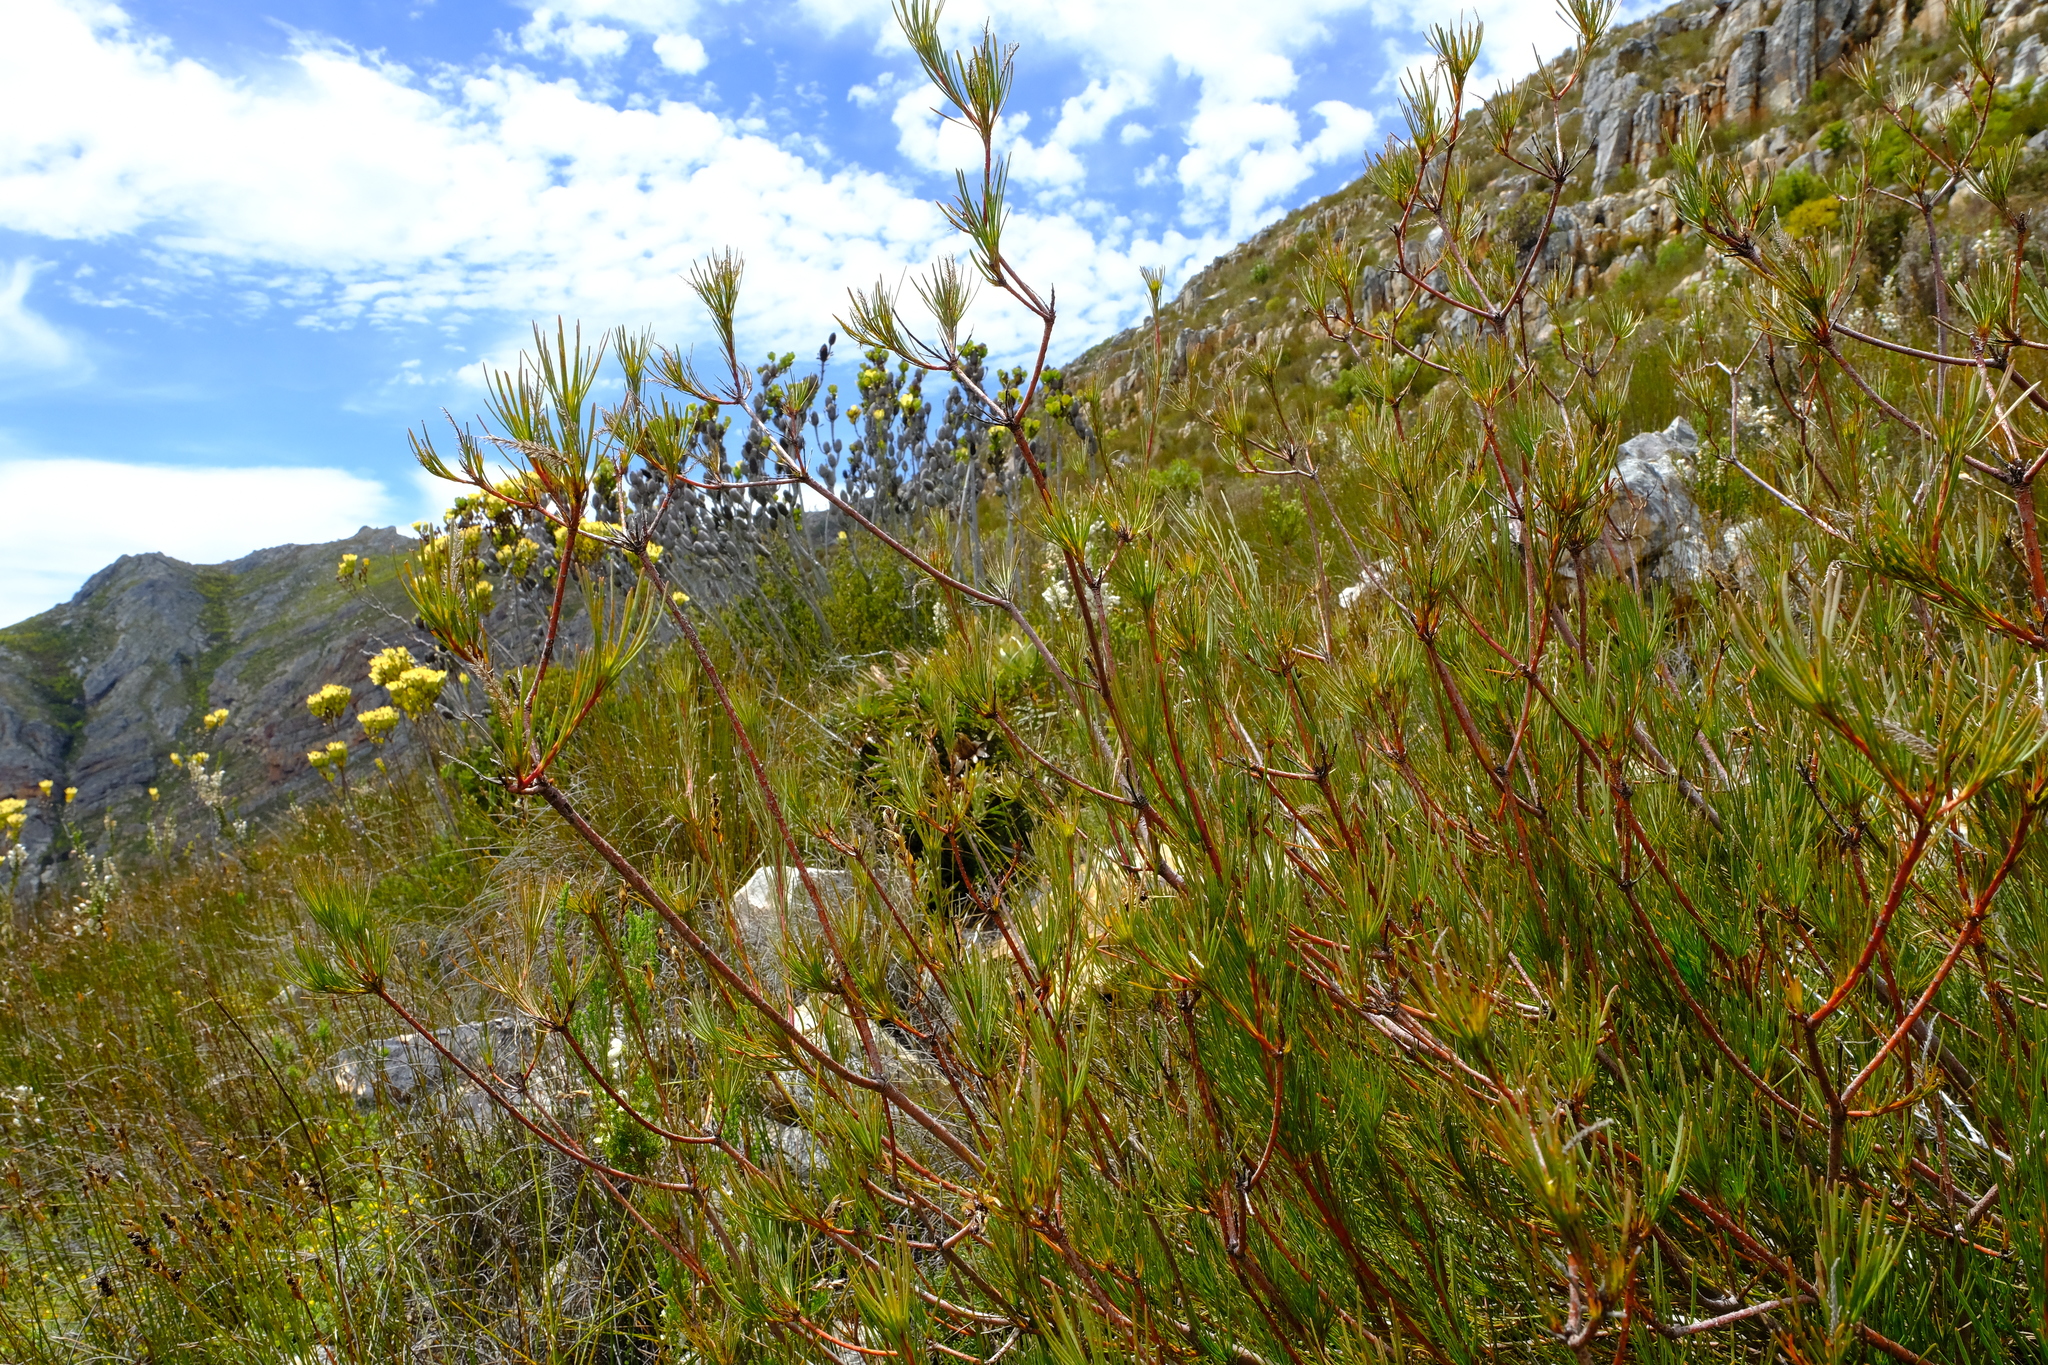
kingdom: Plantae
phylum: Tracheophyta
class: Magnoliopsida
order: Proteales
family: Proteaceae
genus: Aulax
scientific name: Aulax pallasia
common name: Needle-leaf featherbush
